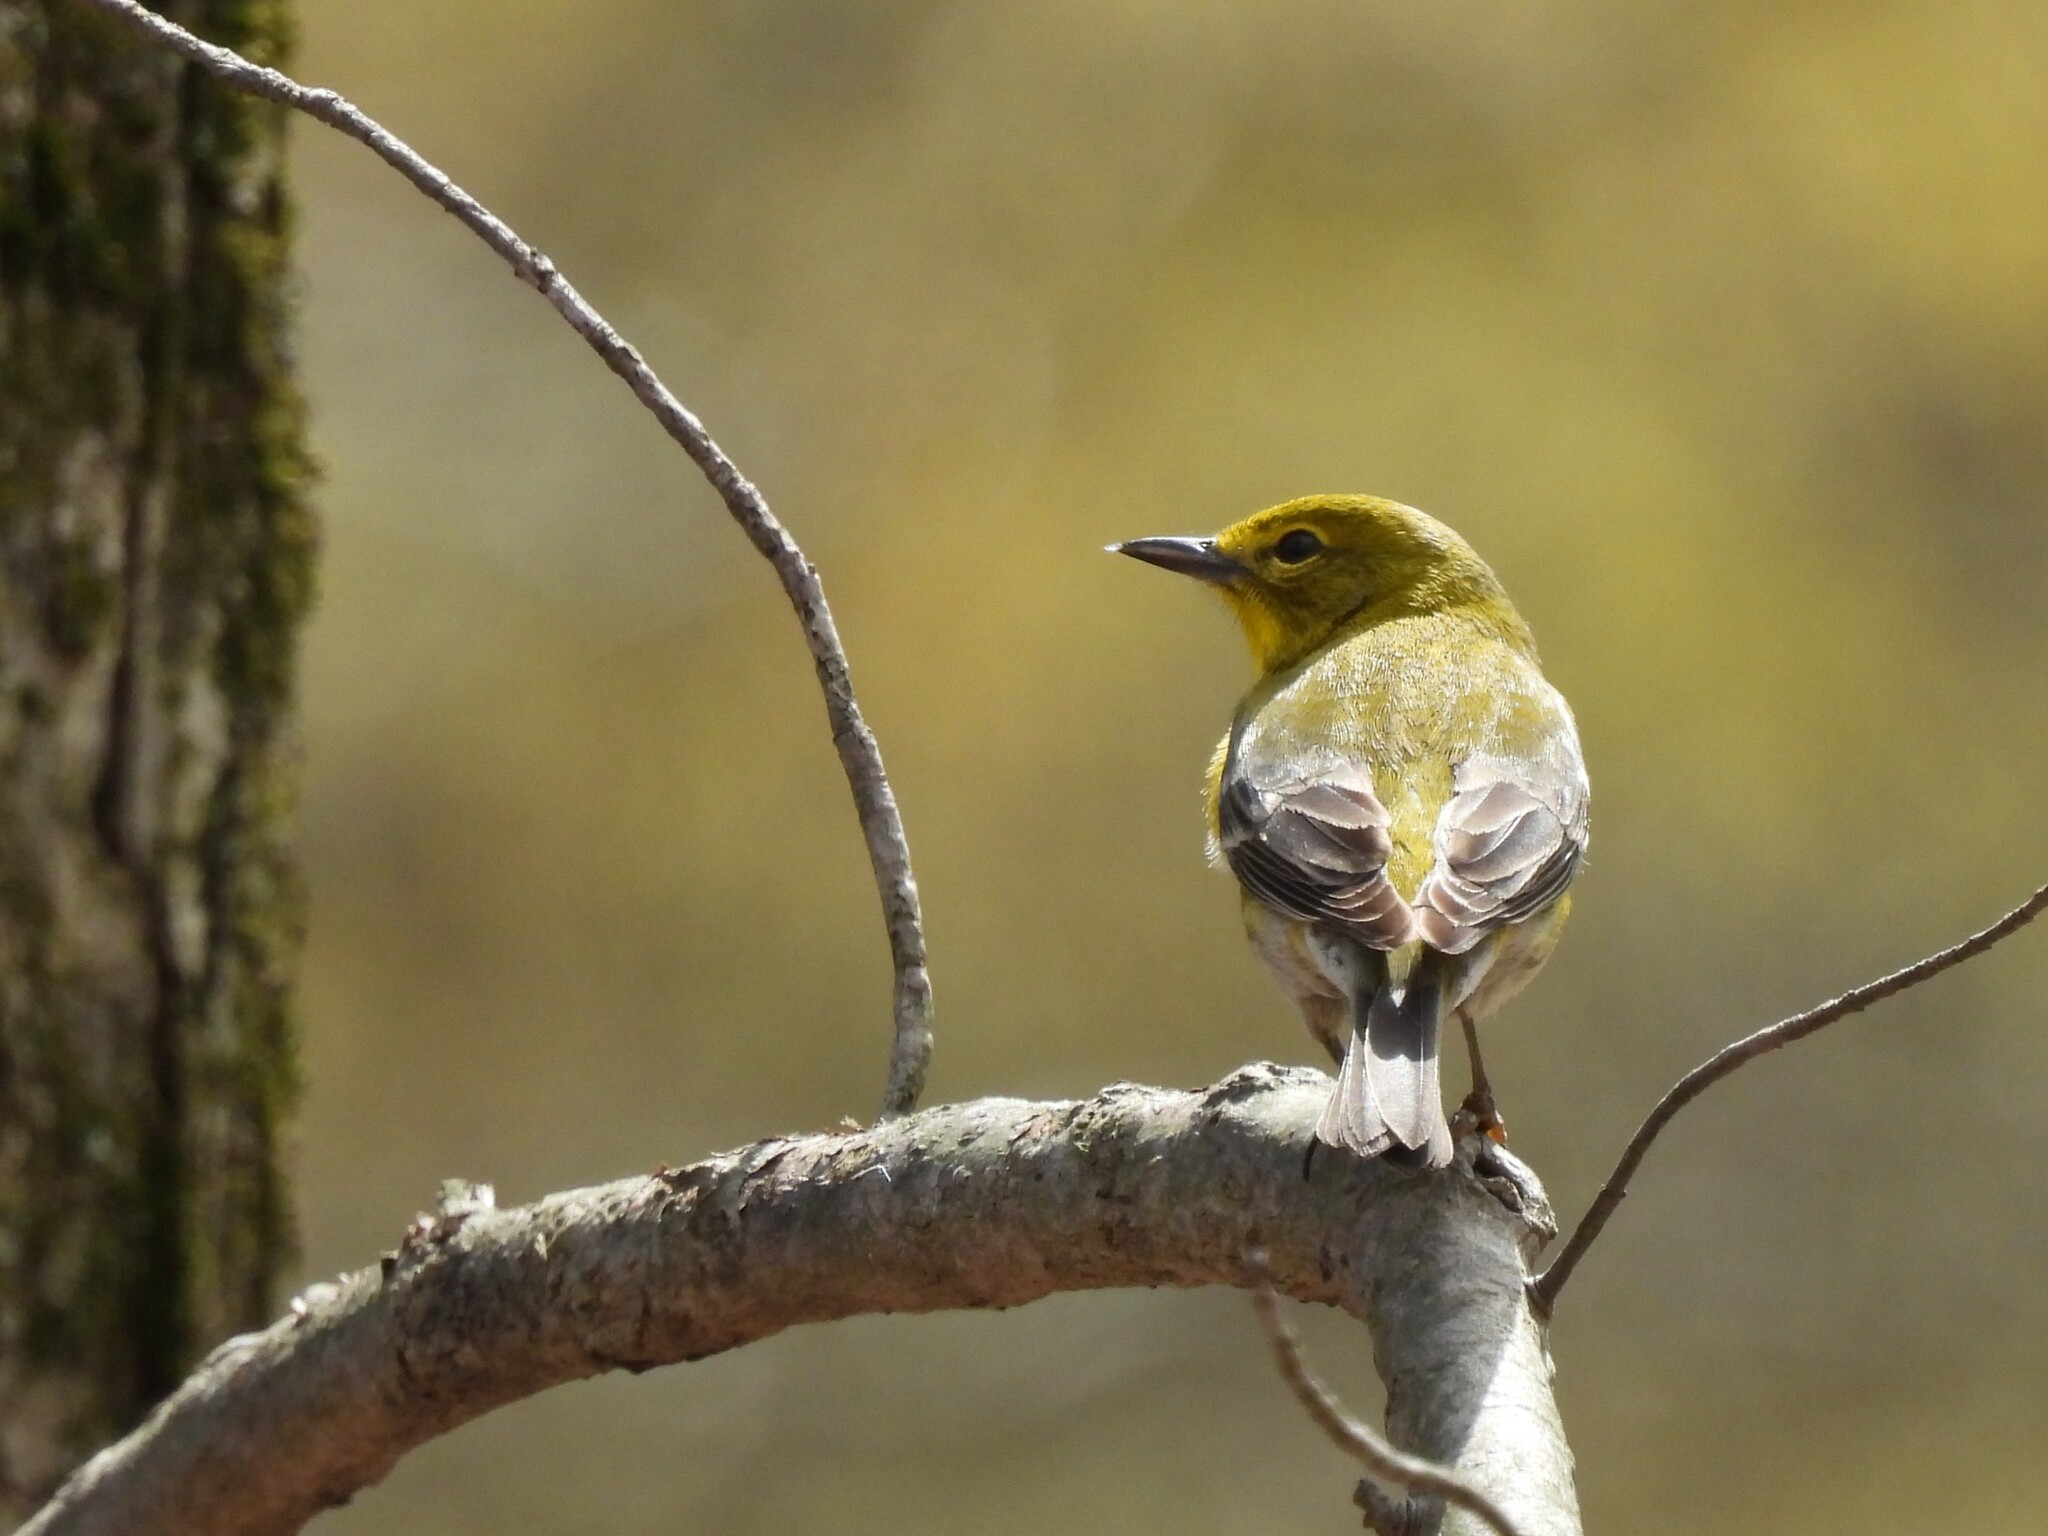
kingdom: Animalia
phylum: Chordata
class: Aves
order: Passeriformes
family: Parulidae
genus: Setophaga
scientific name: Setophaga pinus
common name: Pine warbler
